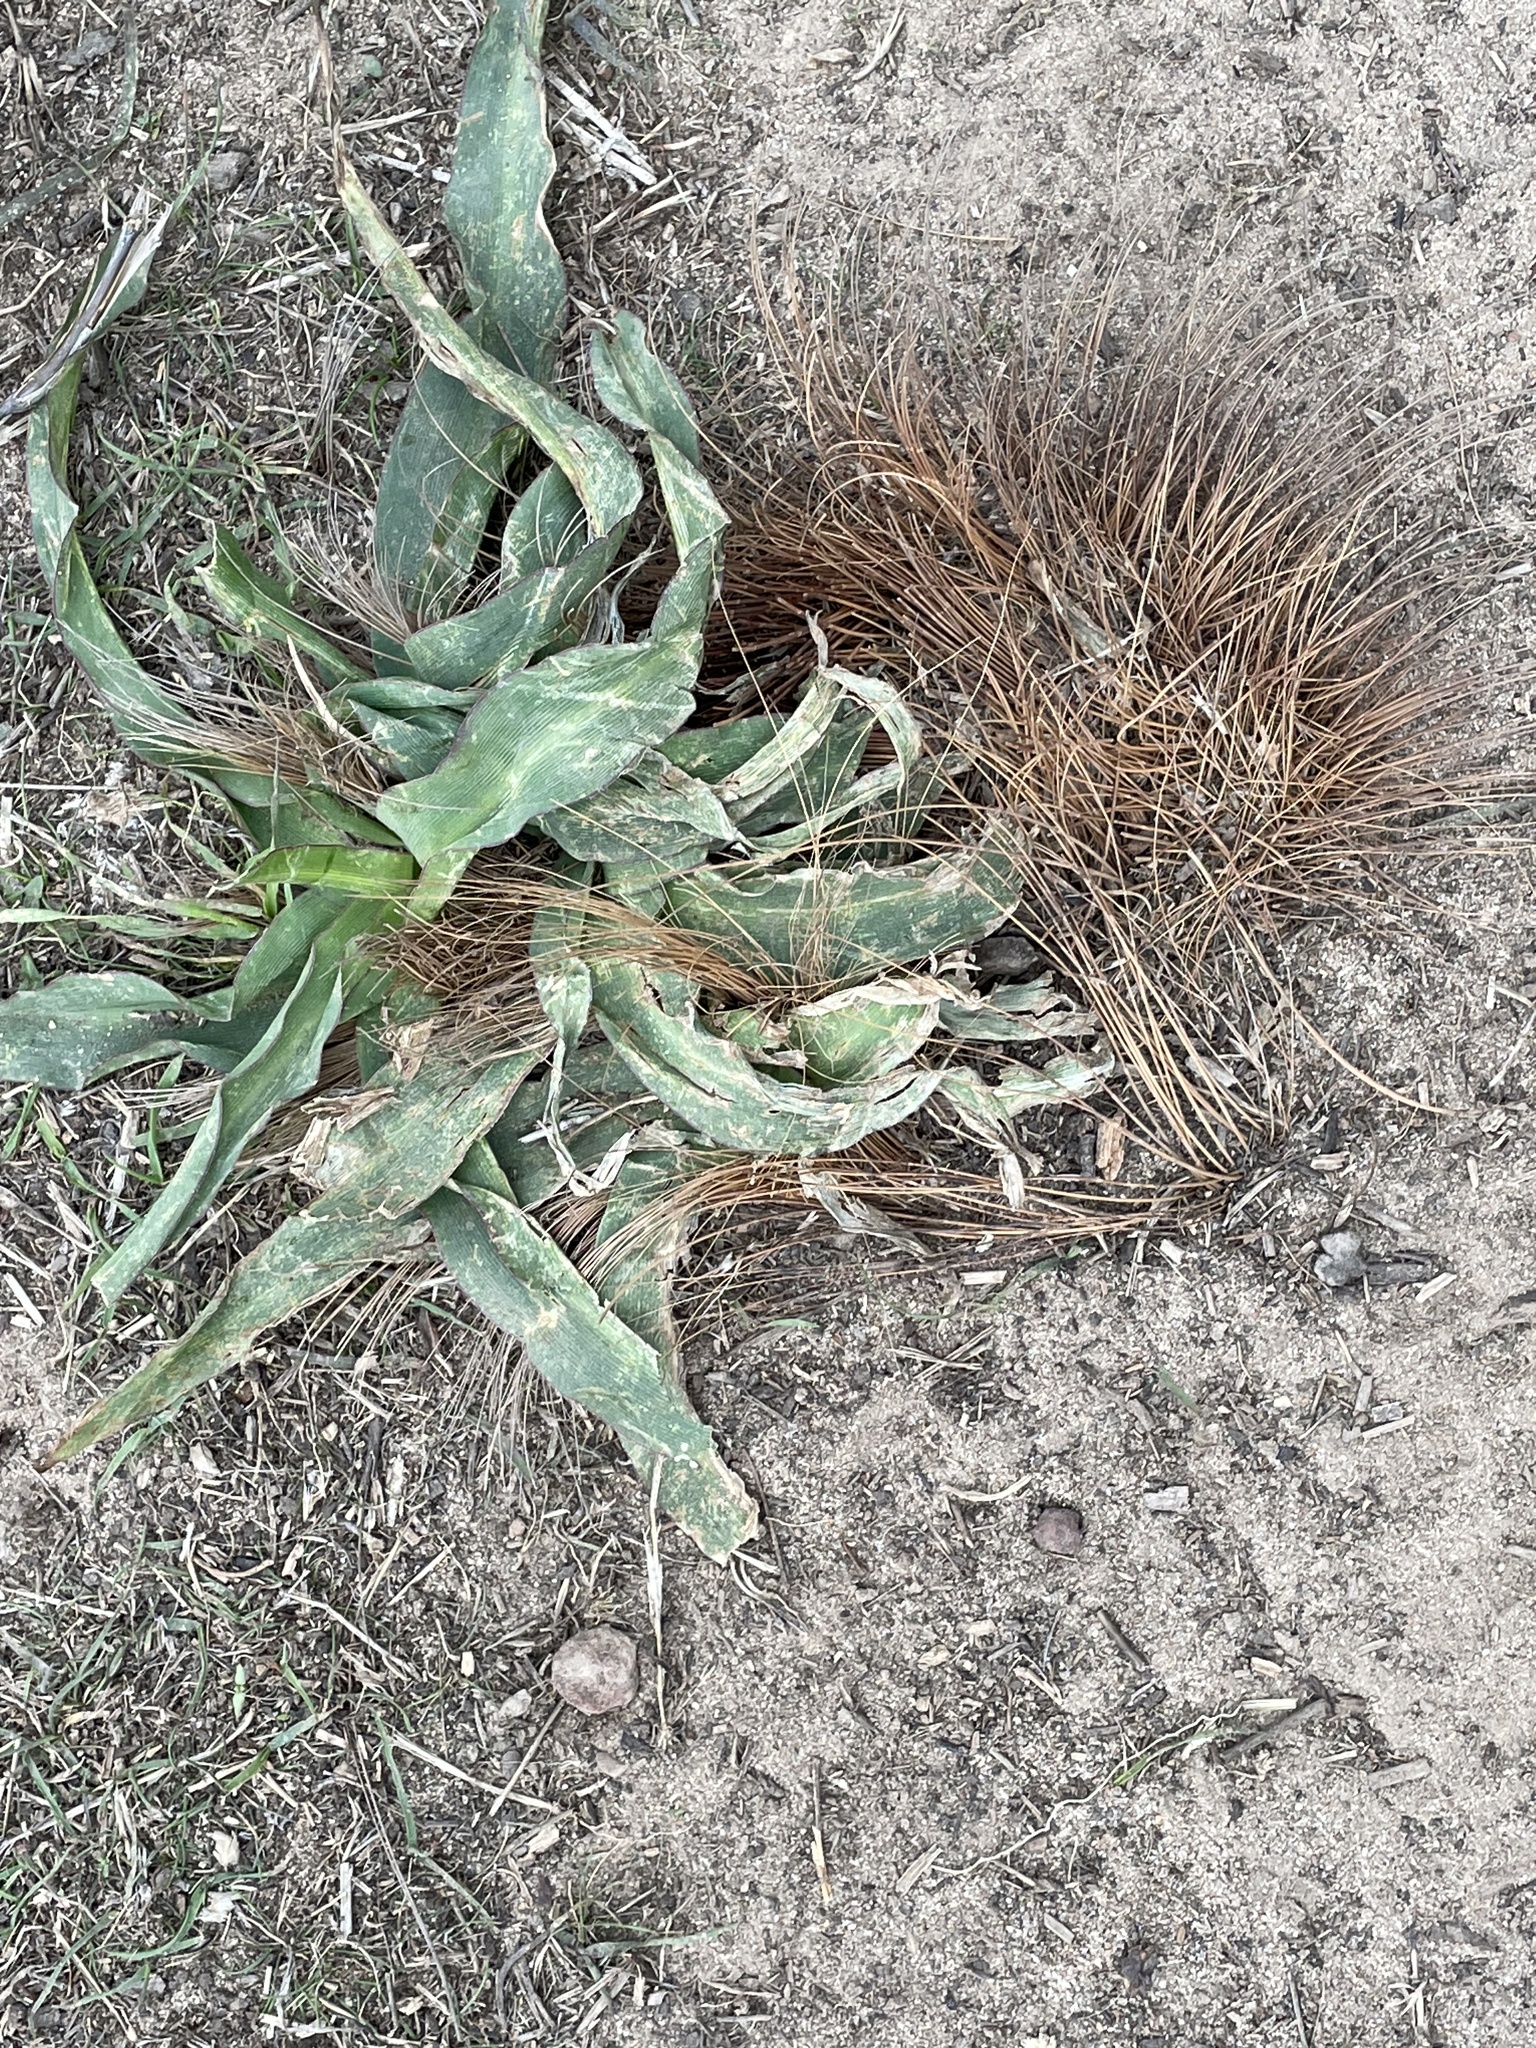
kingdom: Plantae
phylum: Tracheophyta
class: Liliopsida
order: Asparagales
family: Asparagaceae
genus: Chlorogalum
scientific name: Chlorogalum pomeridianum
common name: Amole
